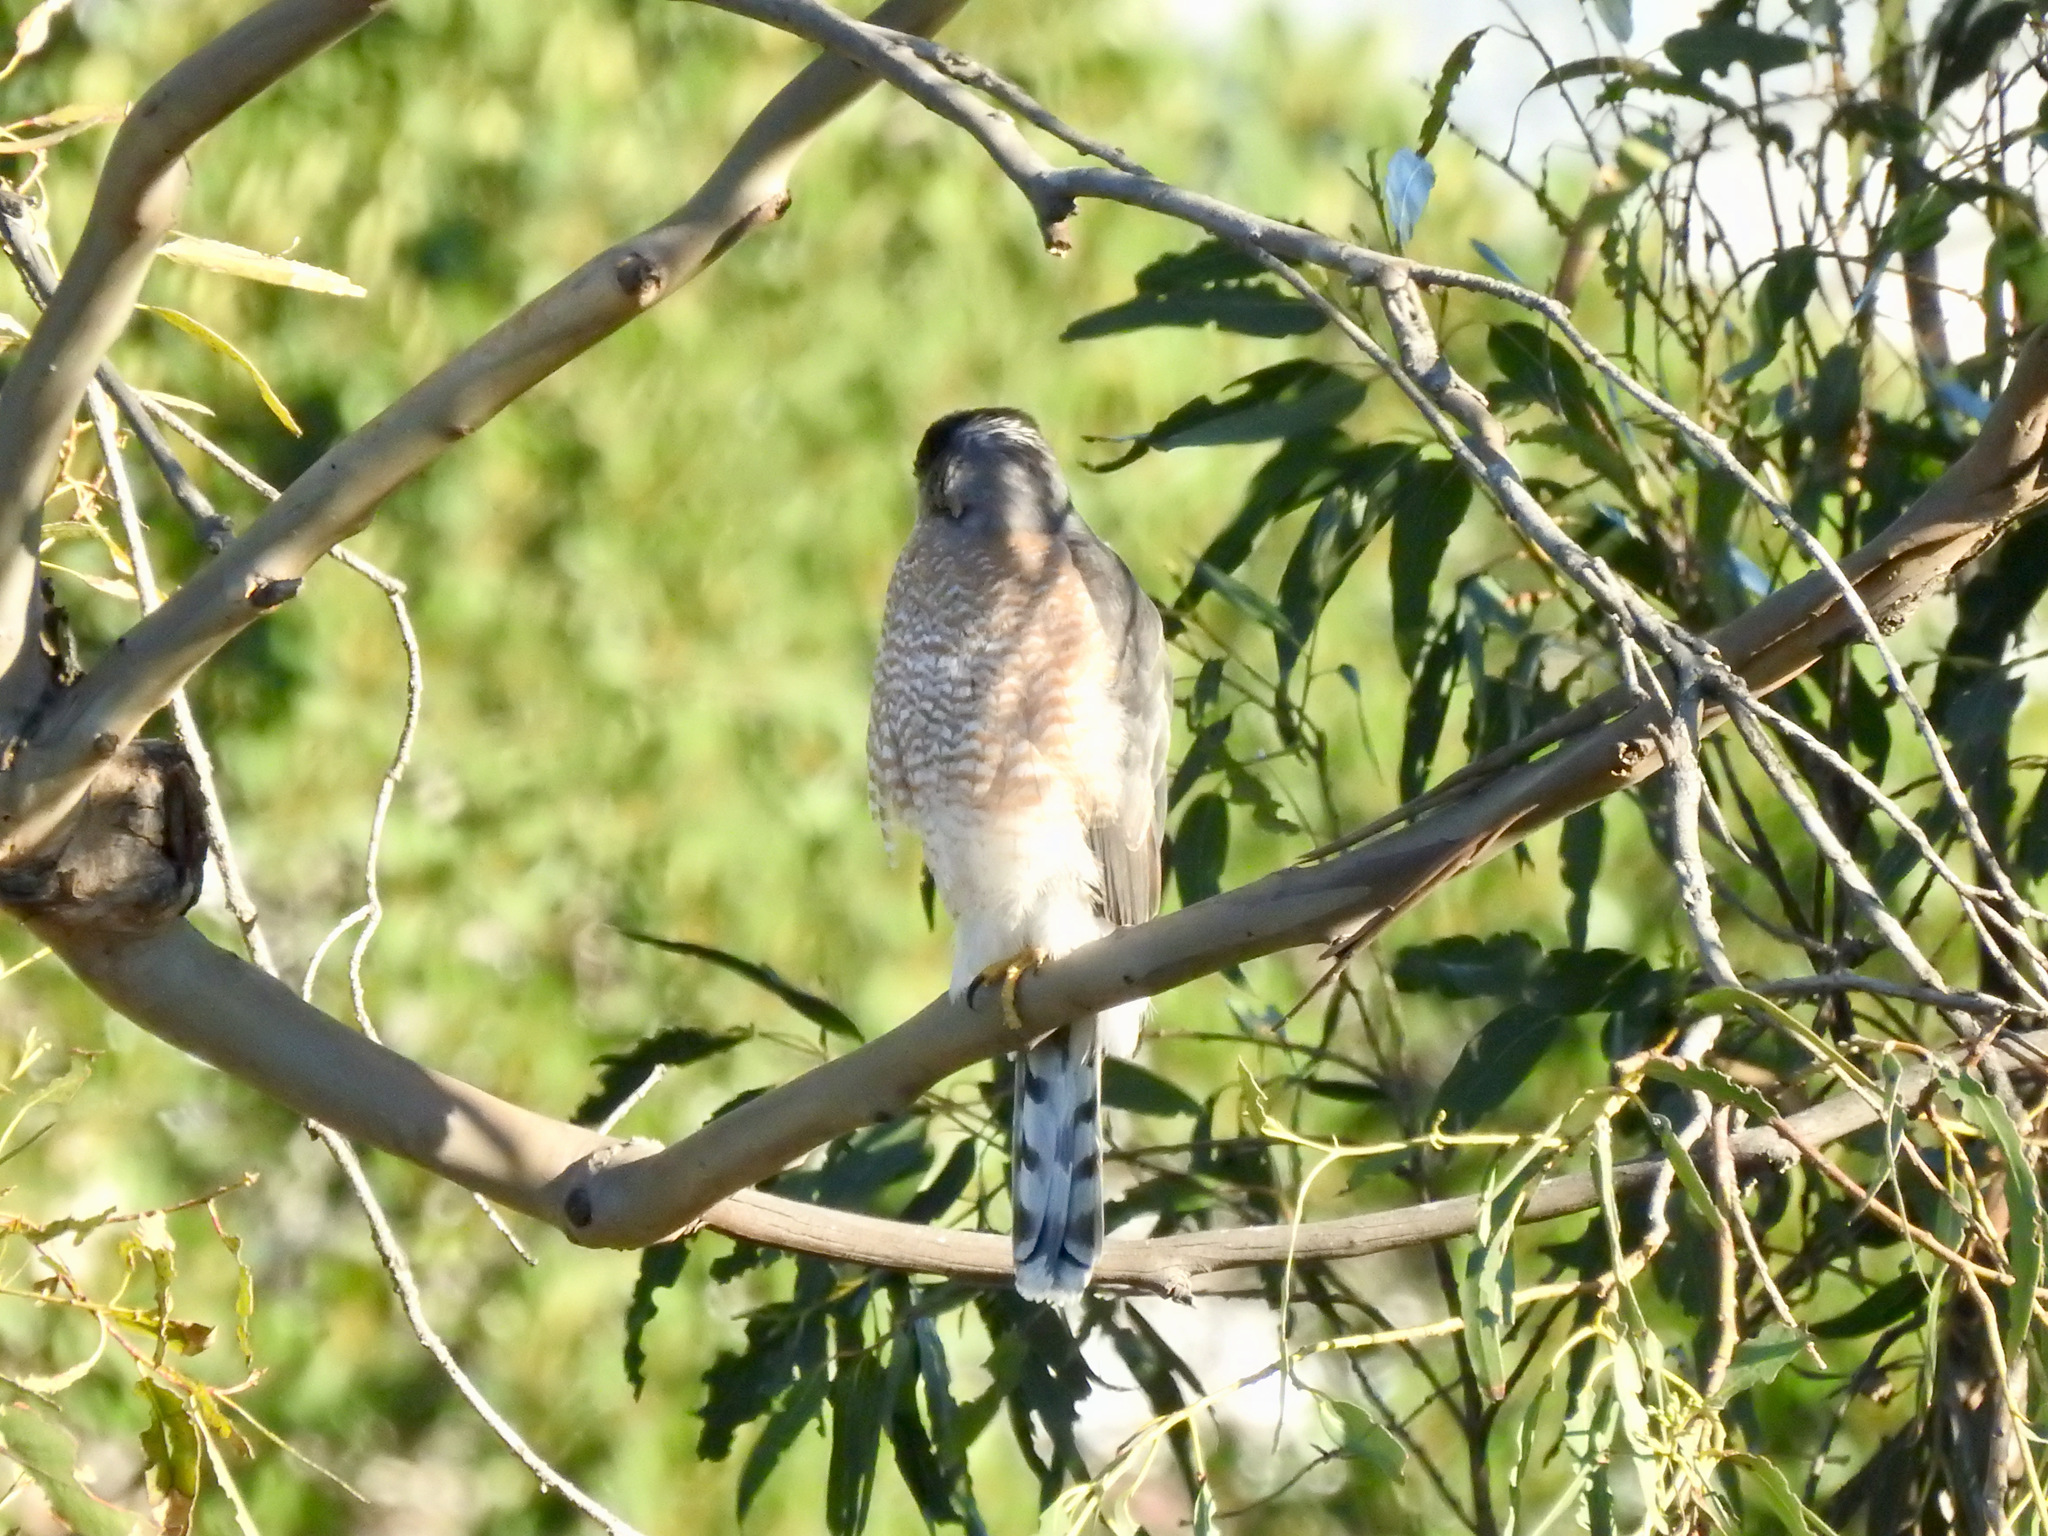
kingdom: Animalia
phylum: Chordata
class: Aves
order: Accipitriformes
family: Accipitridae
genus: Accipiter
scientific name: Accipiter cooperii
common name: Cooper's hawk
